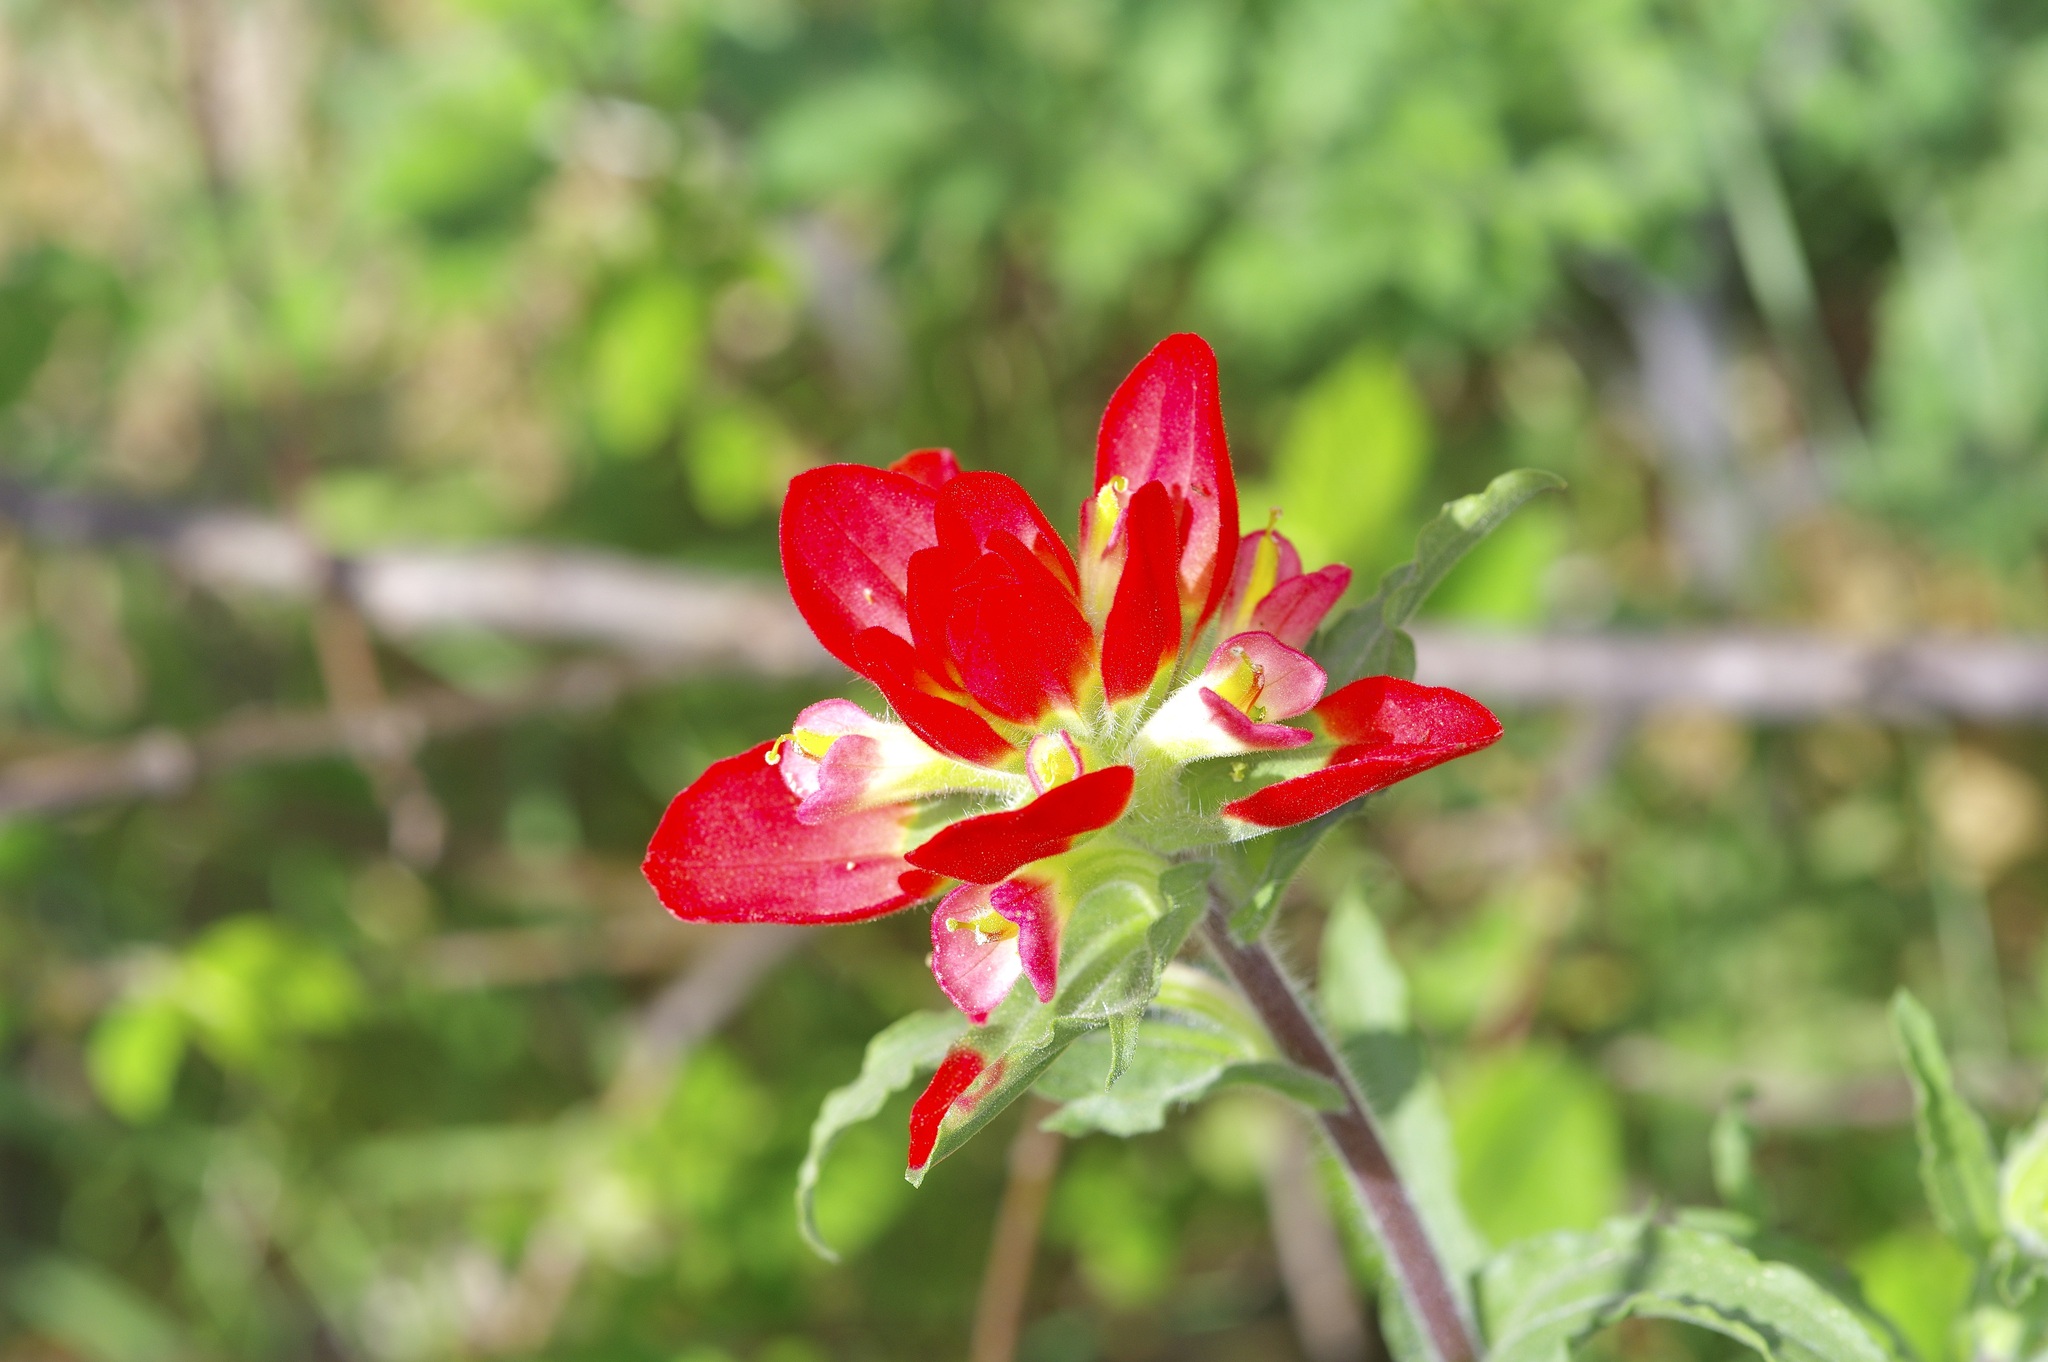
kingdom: Plantae
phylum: Tracheophyta
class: Magnoliopsida
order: Lamiales
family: Orobanchaceae
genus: Castilleja
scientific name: Castilleja indivisa
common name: Texas paintbrush
